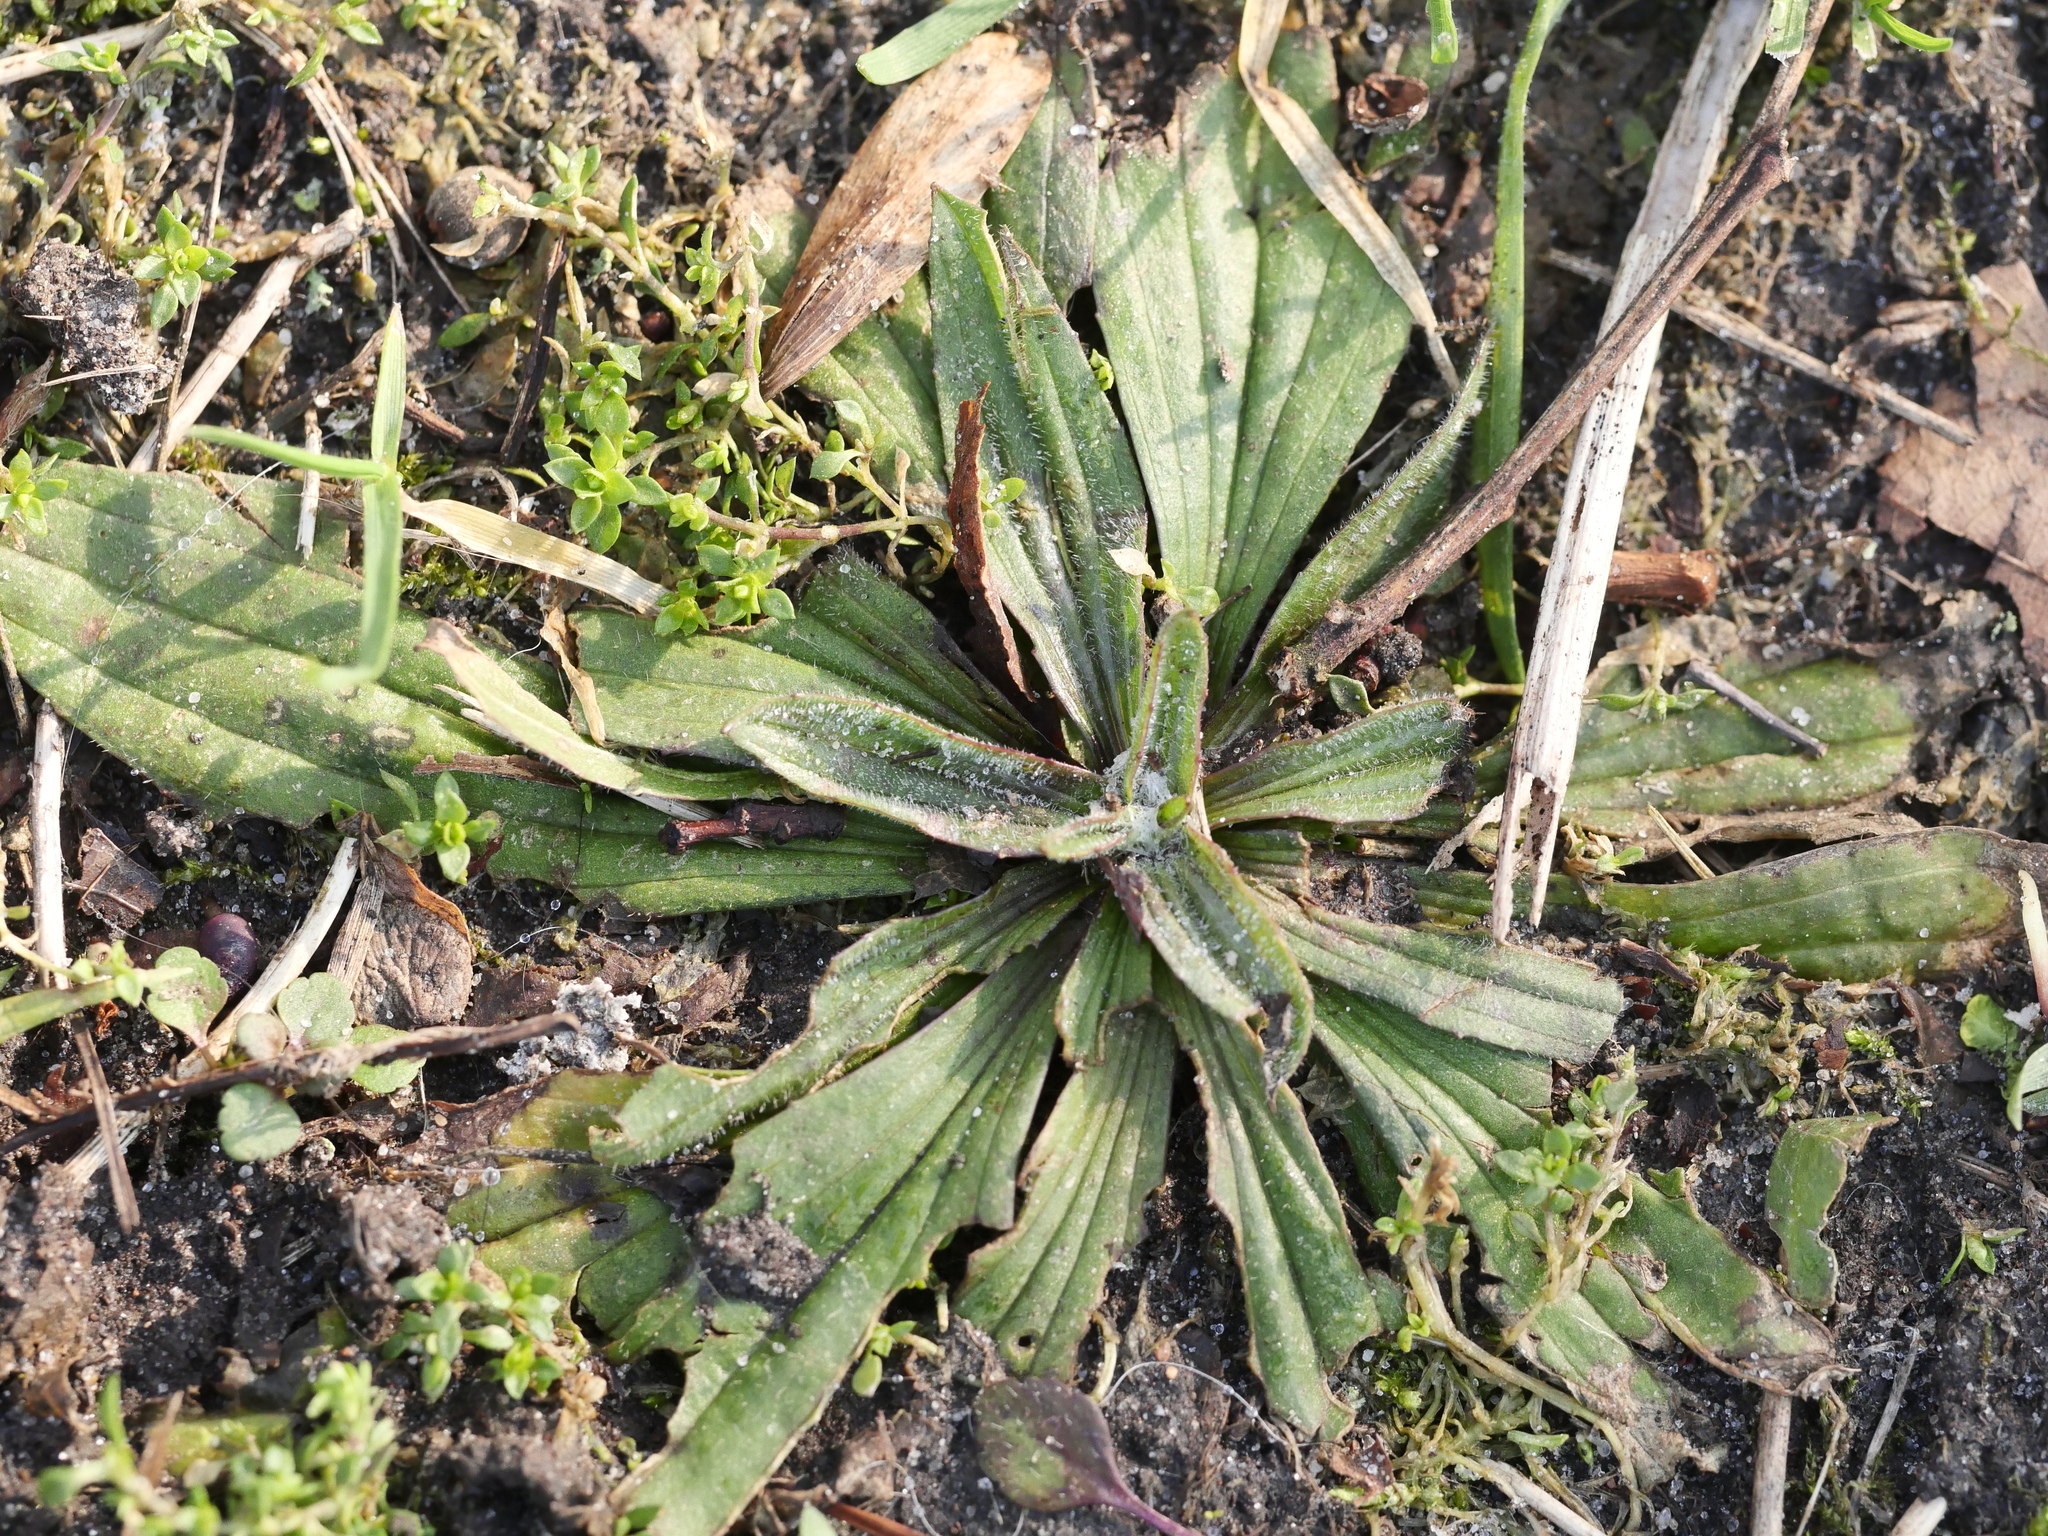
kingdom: Plantae
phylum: Tracheophyta
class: Magnoliopsida
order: Lamiales
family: Plantaginaceae
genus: Plantago
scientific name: Plantago lanceolata
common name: Ribwort plantain
